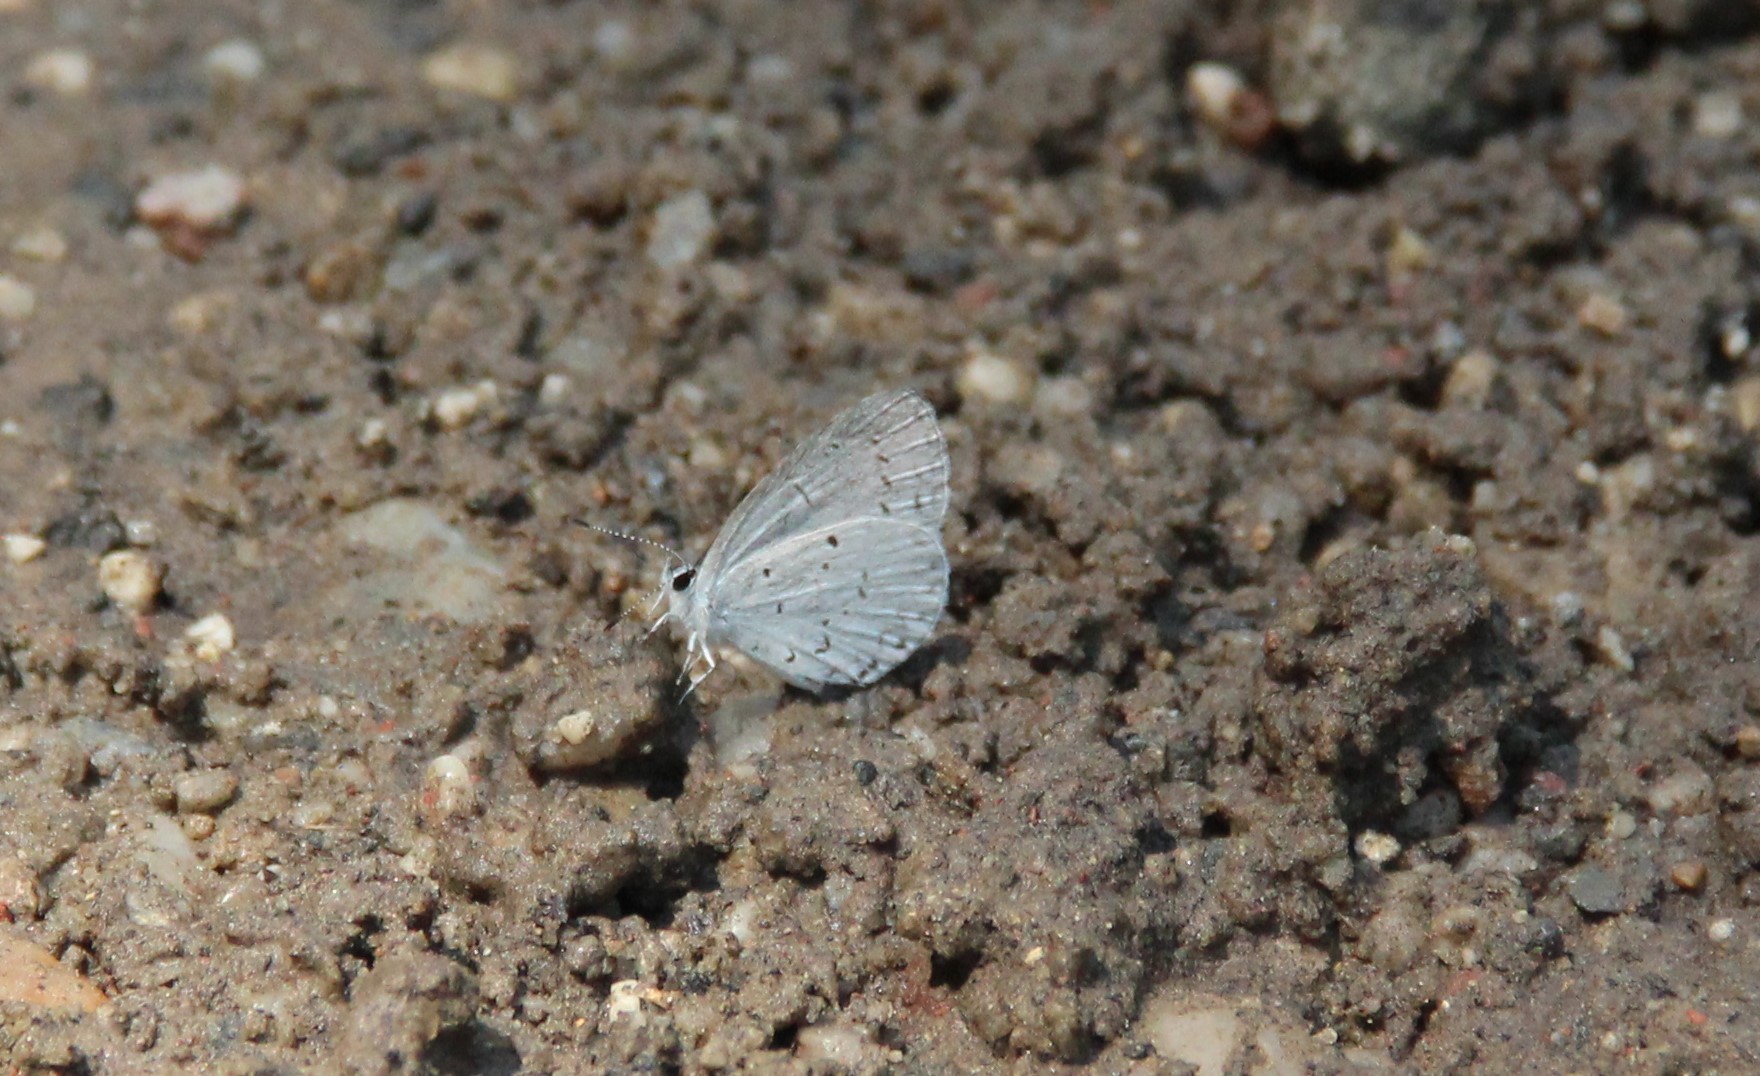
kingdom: Animalia
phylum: Arthropoda
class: Insecta
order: Lepidoptera
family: Lycaenidae
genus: Cyaniris
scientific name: Cyaniris neglecta
